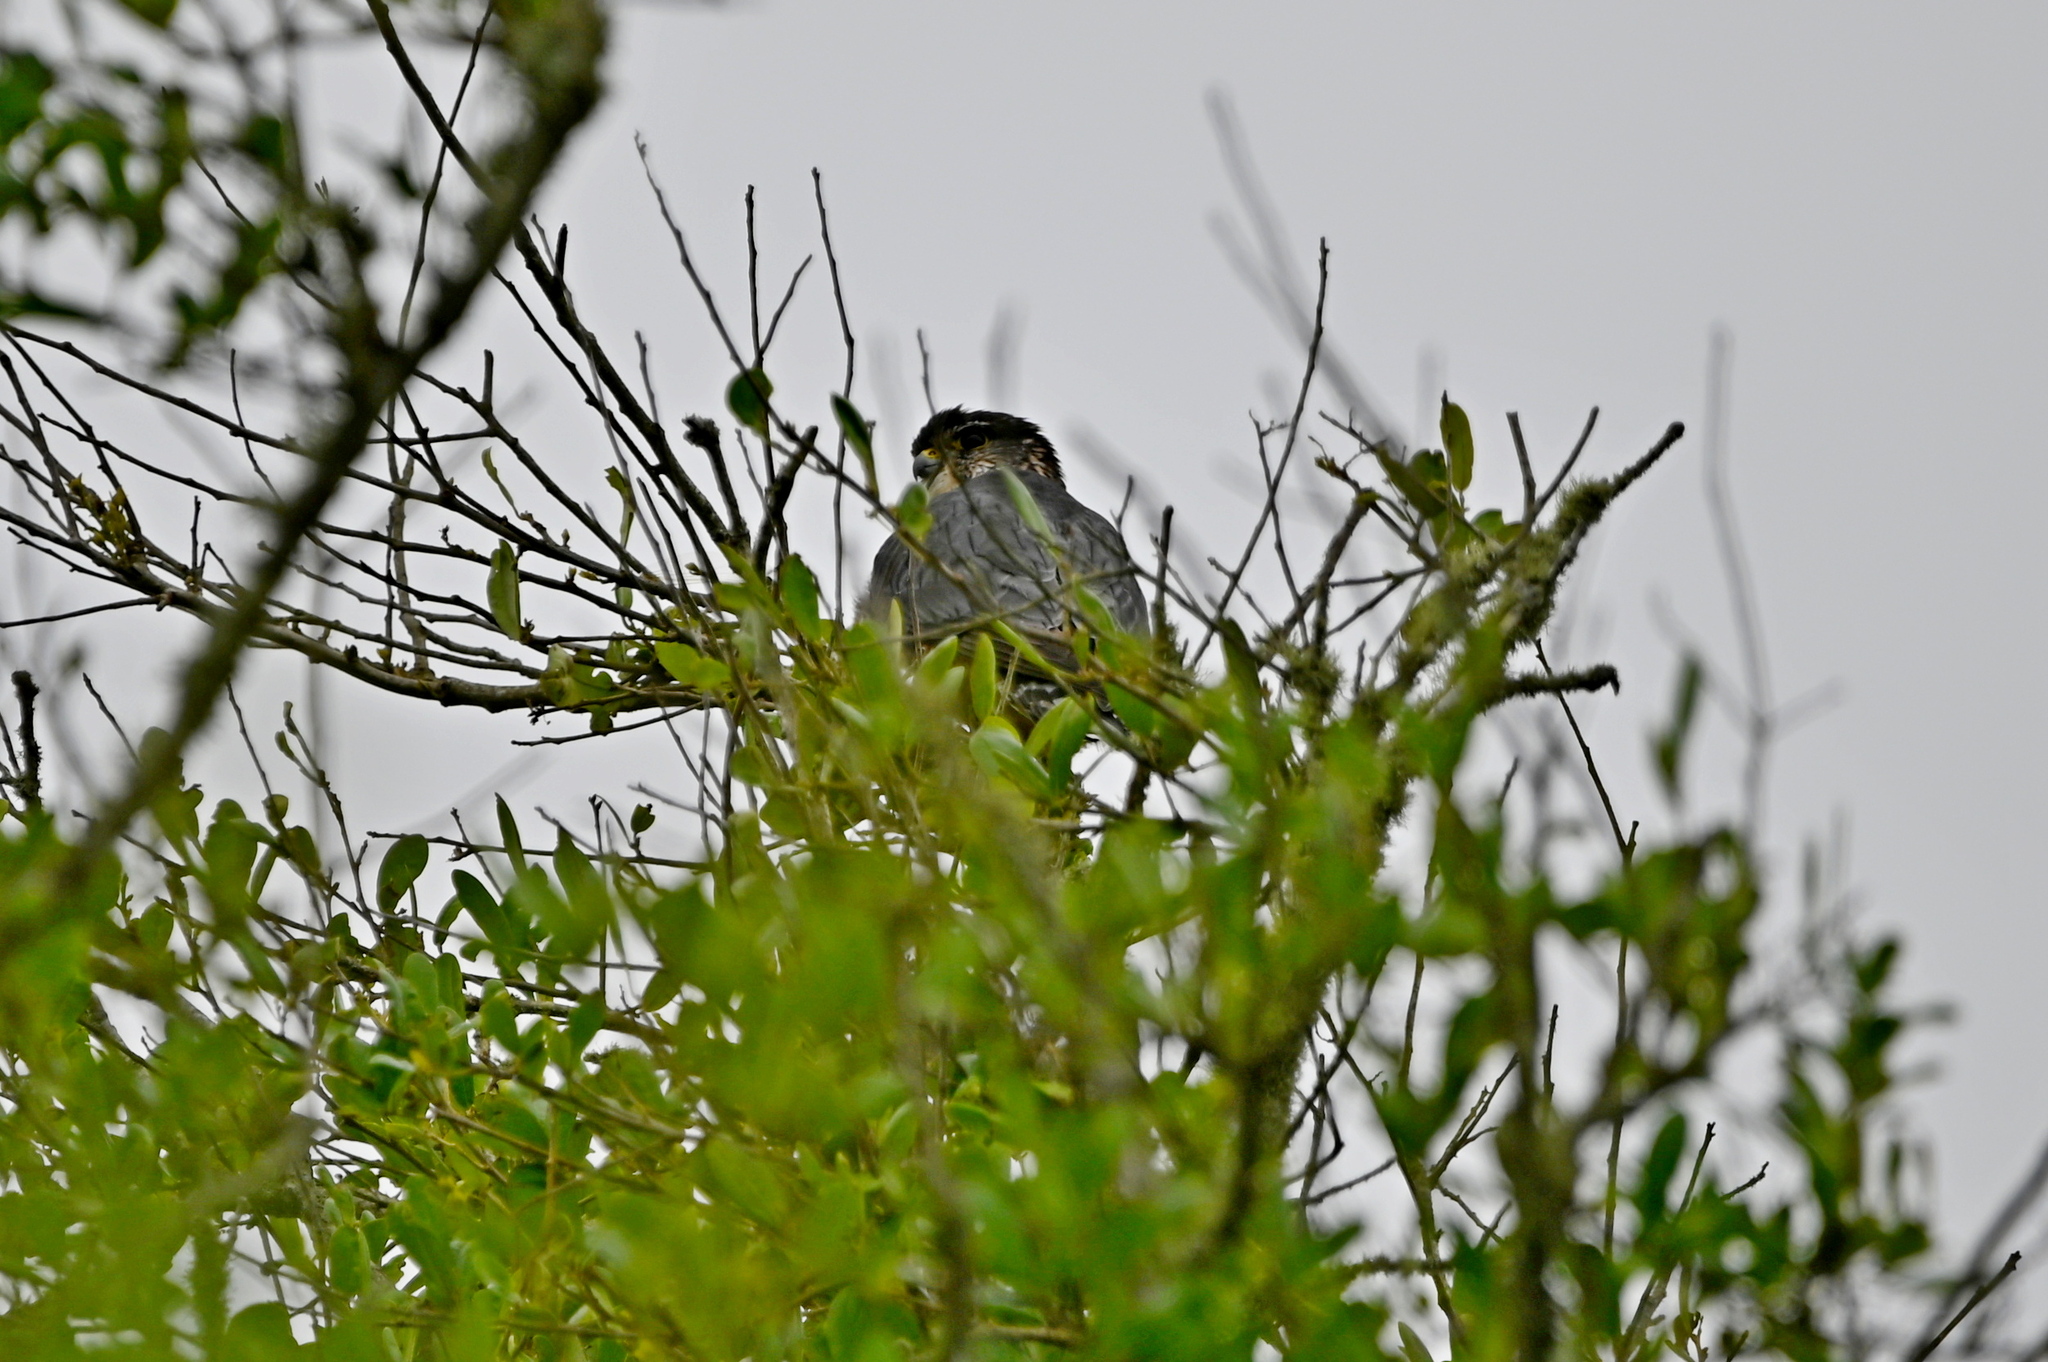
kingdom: Animalia
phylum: Chordata
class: Aves
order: Falconiformes
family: Falconidae
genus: Falco
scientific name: Falco columbarius
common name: Merlin
